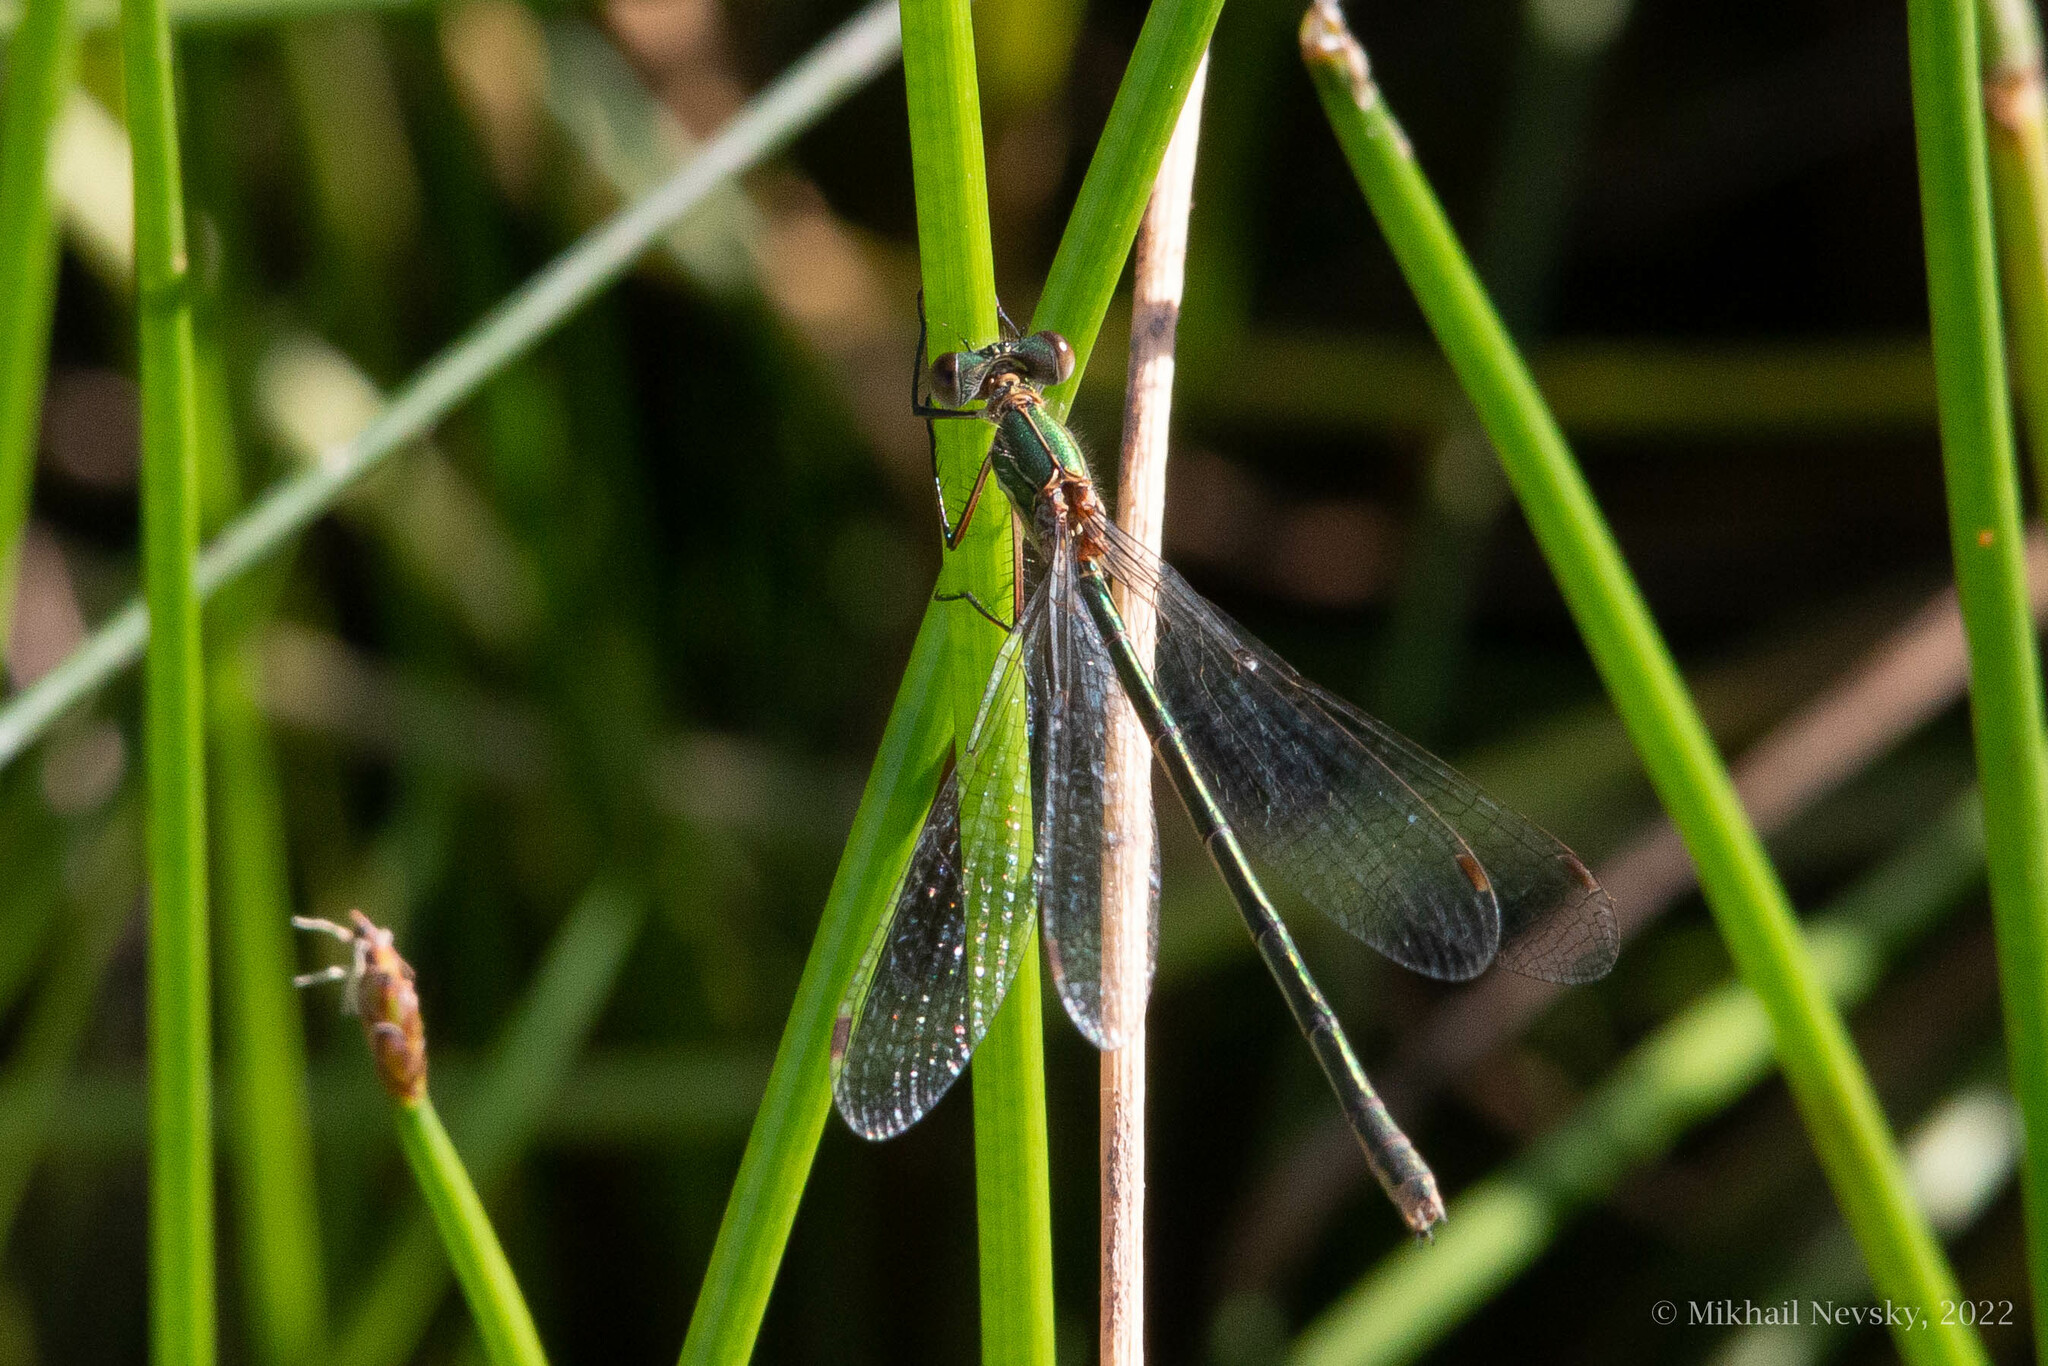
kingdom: Animalia
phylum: Arthropoda
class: Insecta
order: Odonata
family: Lestidae
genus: Lestes
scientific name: Lestes sponsa
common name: Common spreadwing
